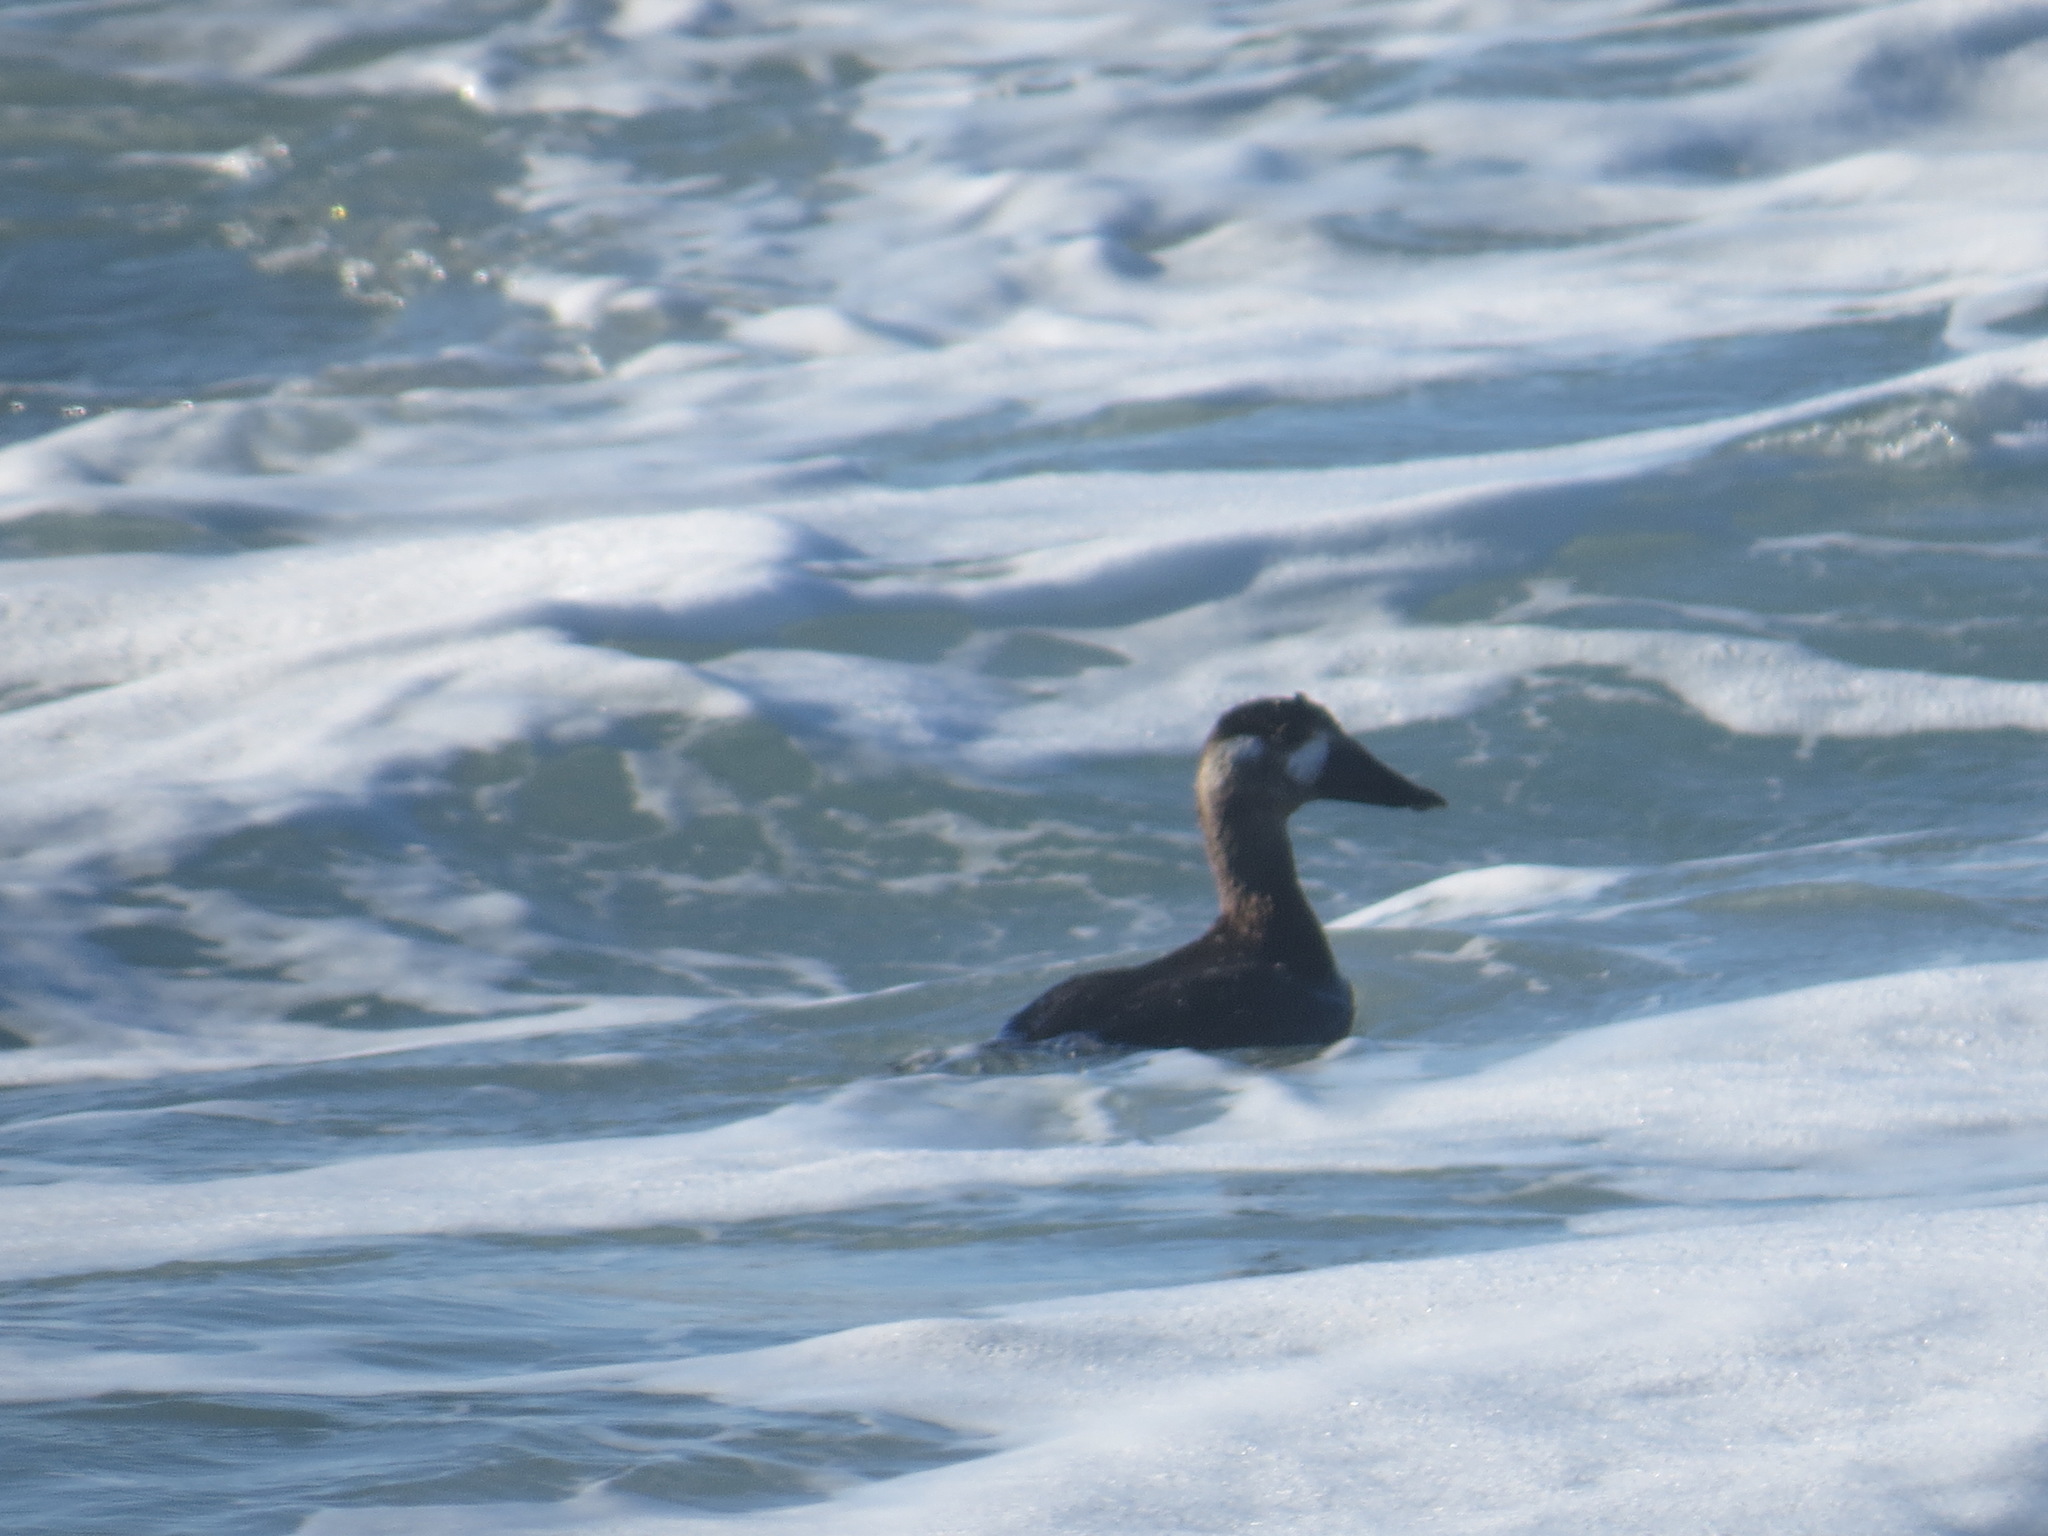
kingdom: Animalia
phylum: Chordata
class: Aves
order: Anseriformes
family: Anatidae
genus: Melanitta
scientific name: Melanitta perspicillata
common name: Surf scoter
